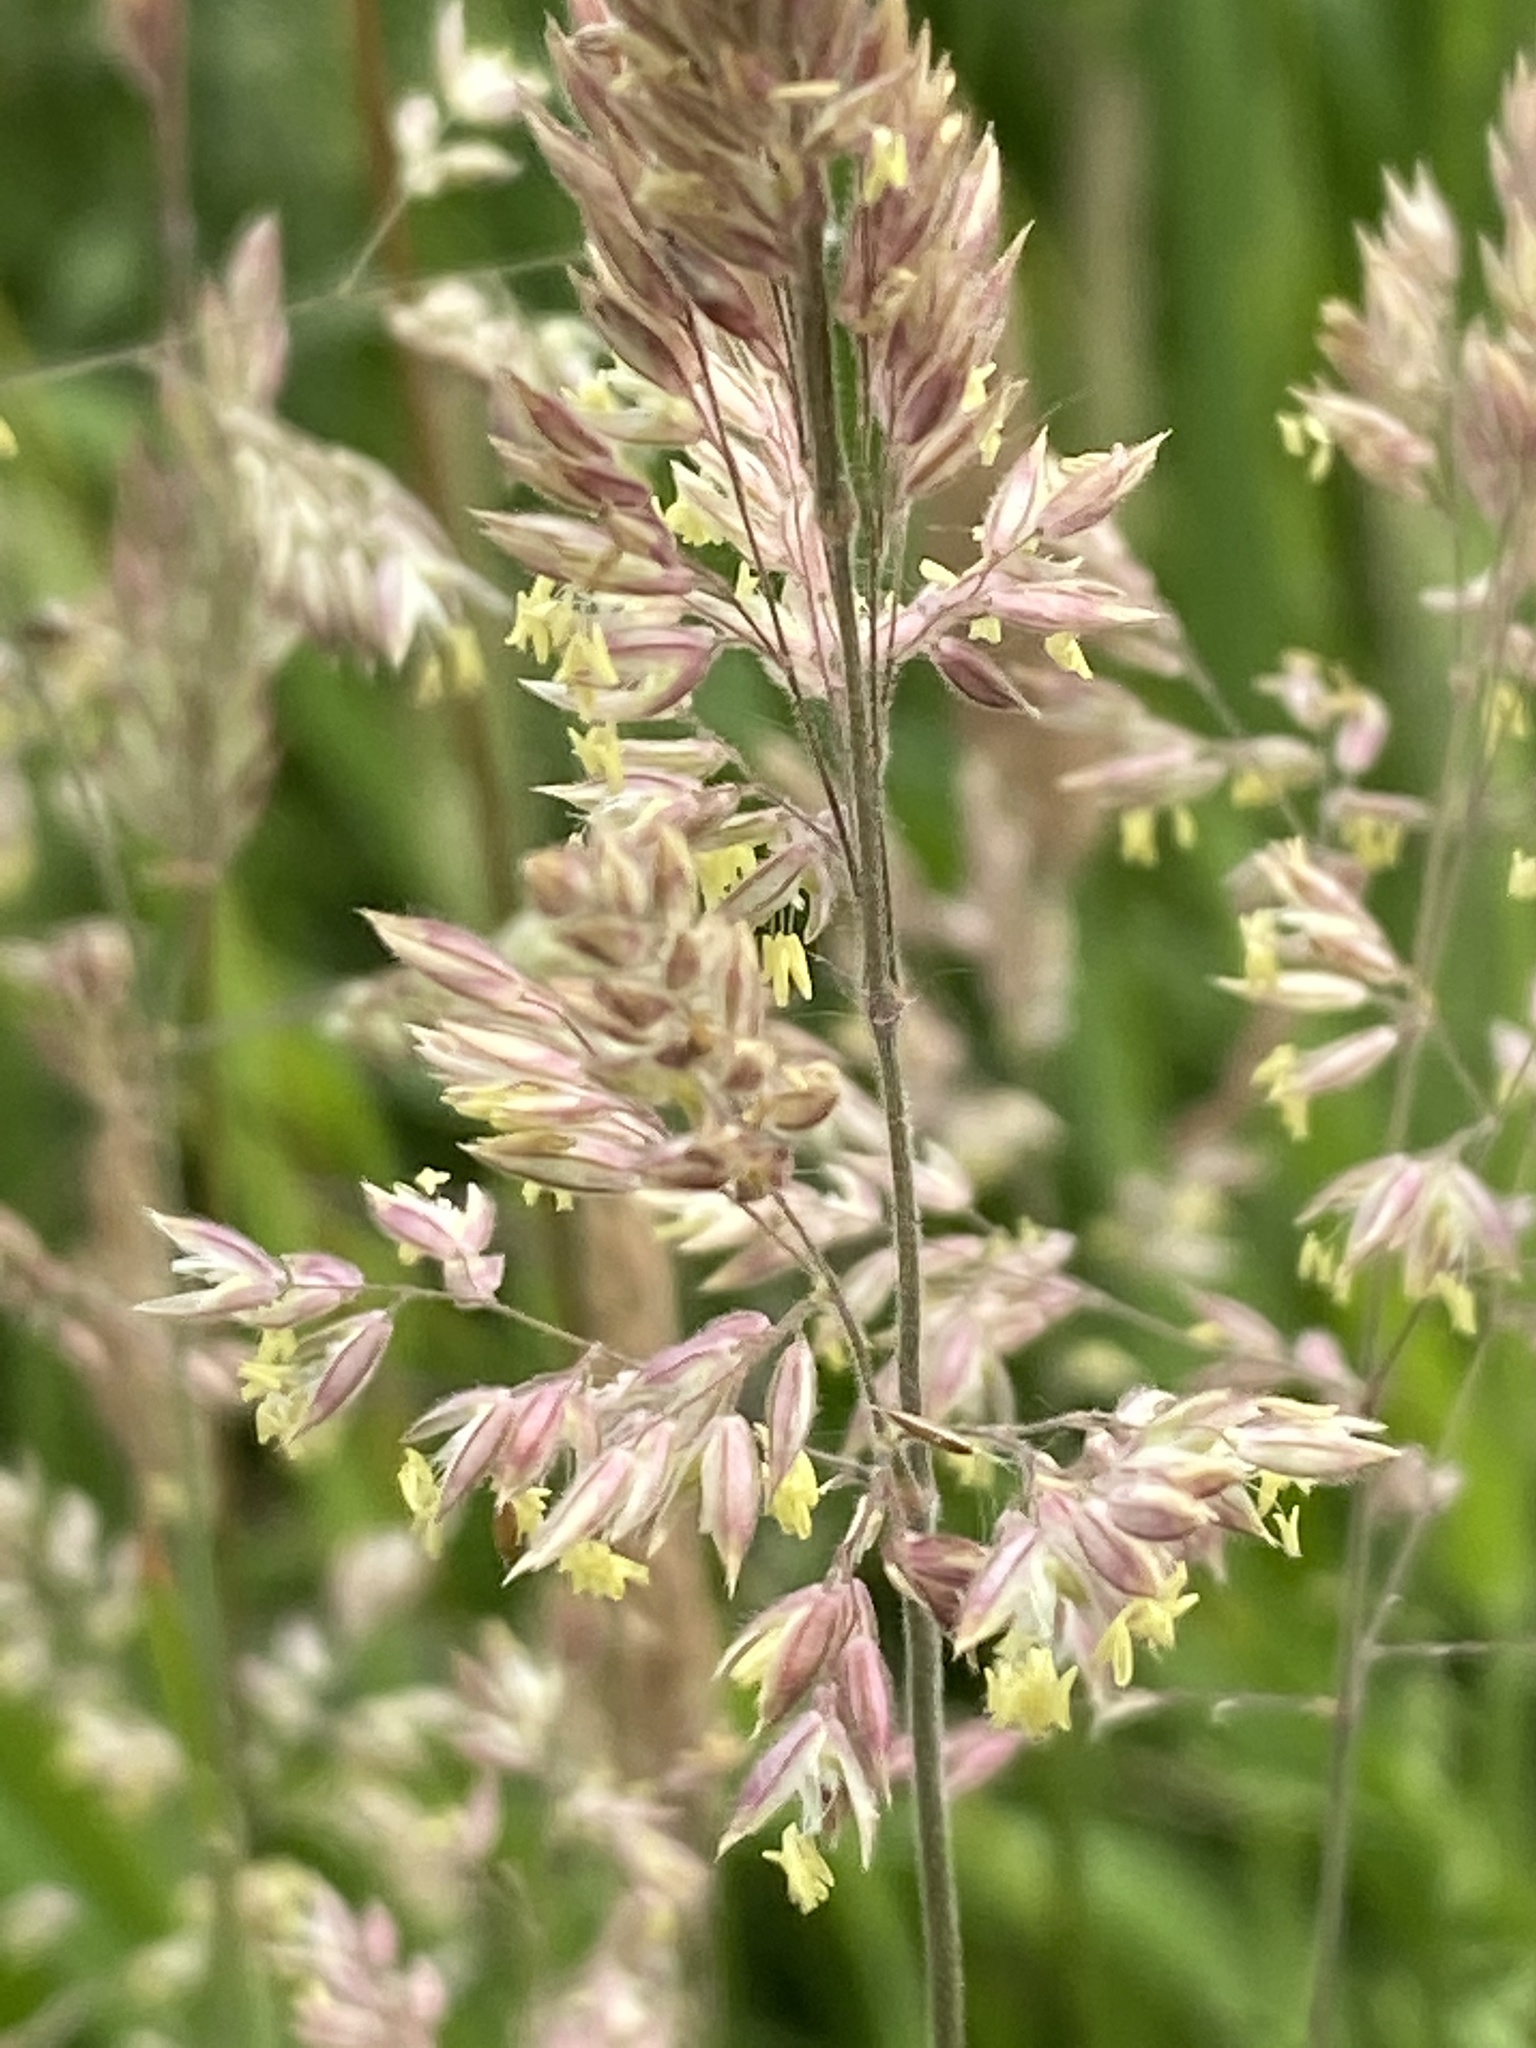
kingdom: Plantae
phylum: Tracheophyta
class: Liliopsida
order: Poales
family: Poaceae
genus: Holcus
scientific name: Holcus lanatus
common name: Yorkshire-fog
